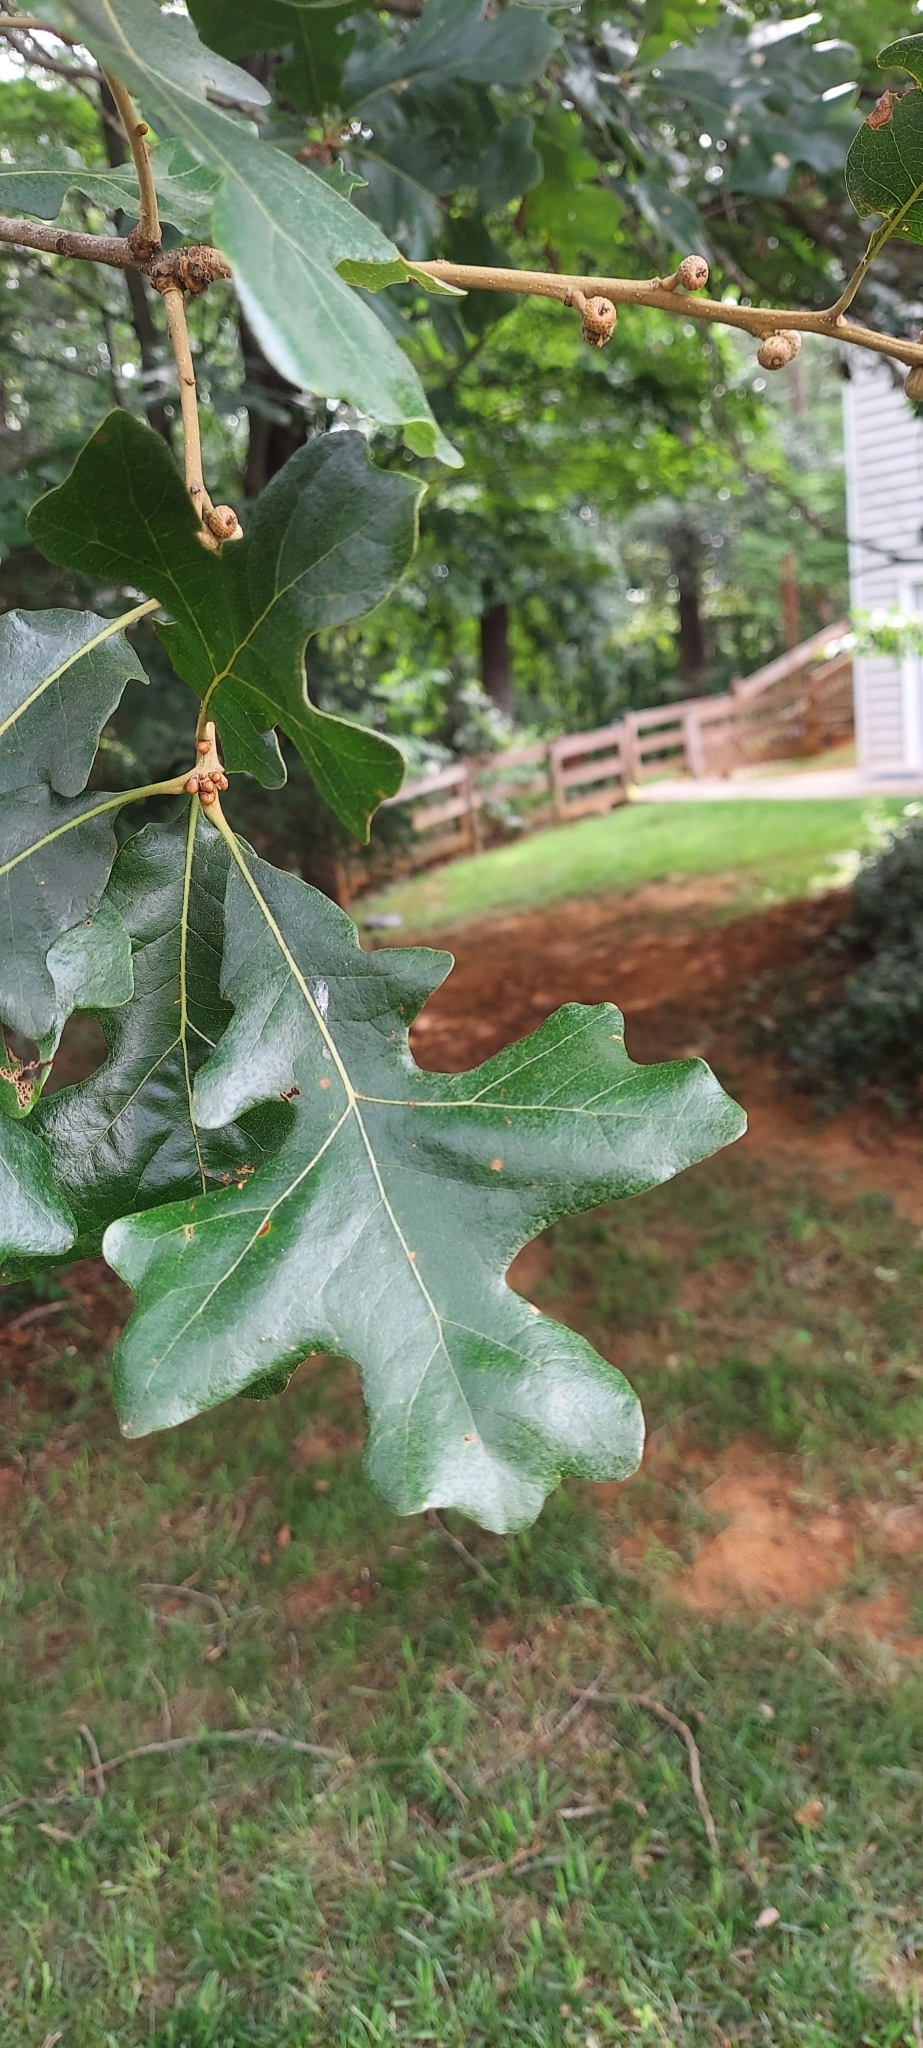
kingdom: Plantae
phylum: Tracheophyta
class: Magnoliopsida
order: Fagales
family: Fagaceae
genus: Quercus
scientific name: Quercus stellata
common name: Post oak
